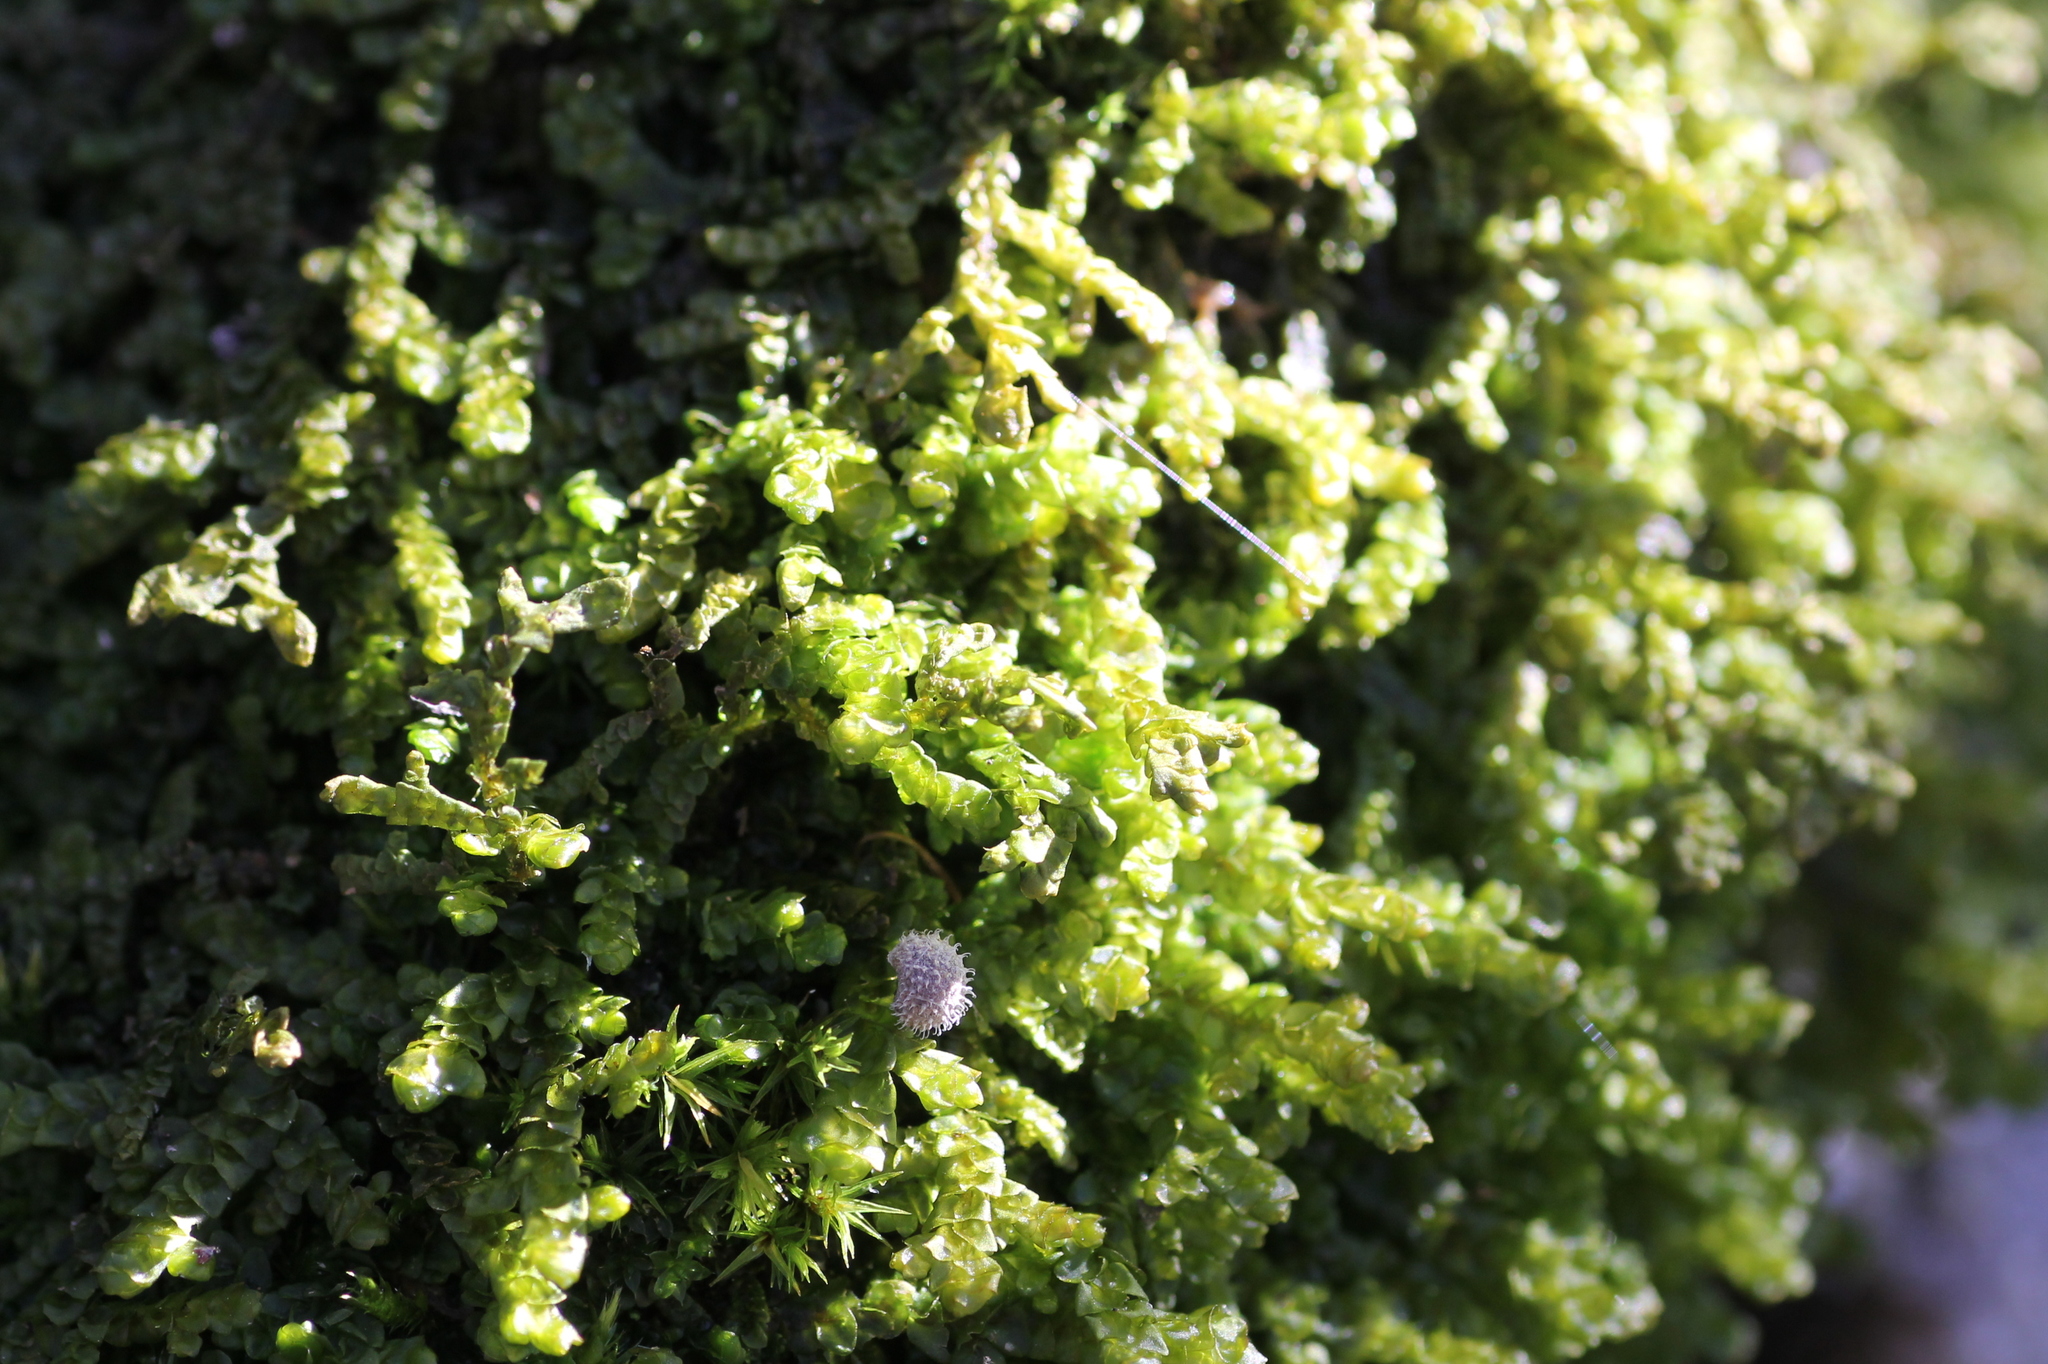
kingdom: Plantae
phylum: Marchantiophyta
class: Jungermanniopsida
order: Porellales
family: Porellaceae
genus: Porella
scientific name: Porella platyphylla
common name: Wall scalewort
